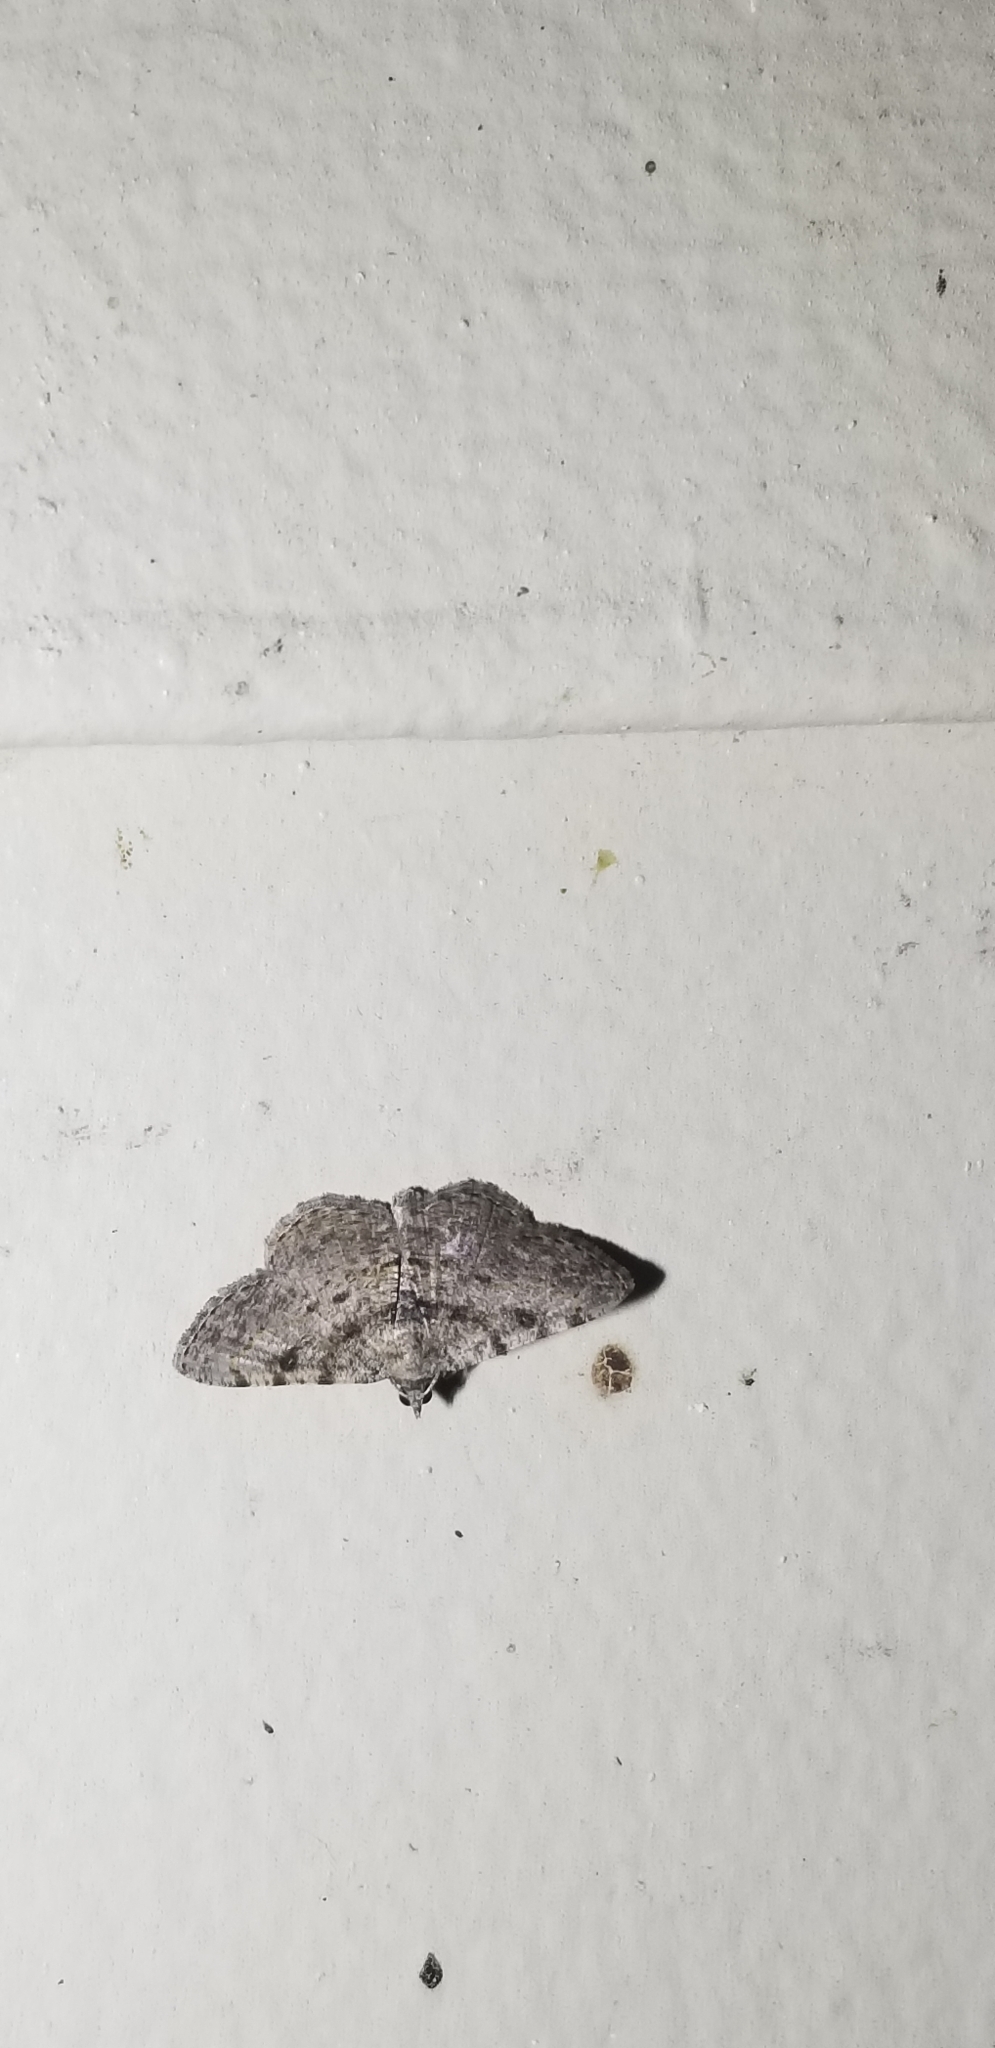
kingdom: Animalia
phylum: Arthropoda
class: Insecta
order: Lepidoptera
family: Geometridae
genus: Digrammia
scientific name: Digrammia gnophosaria
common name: Hollow-spotted angle
